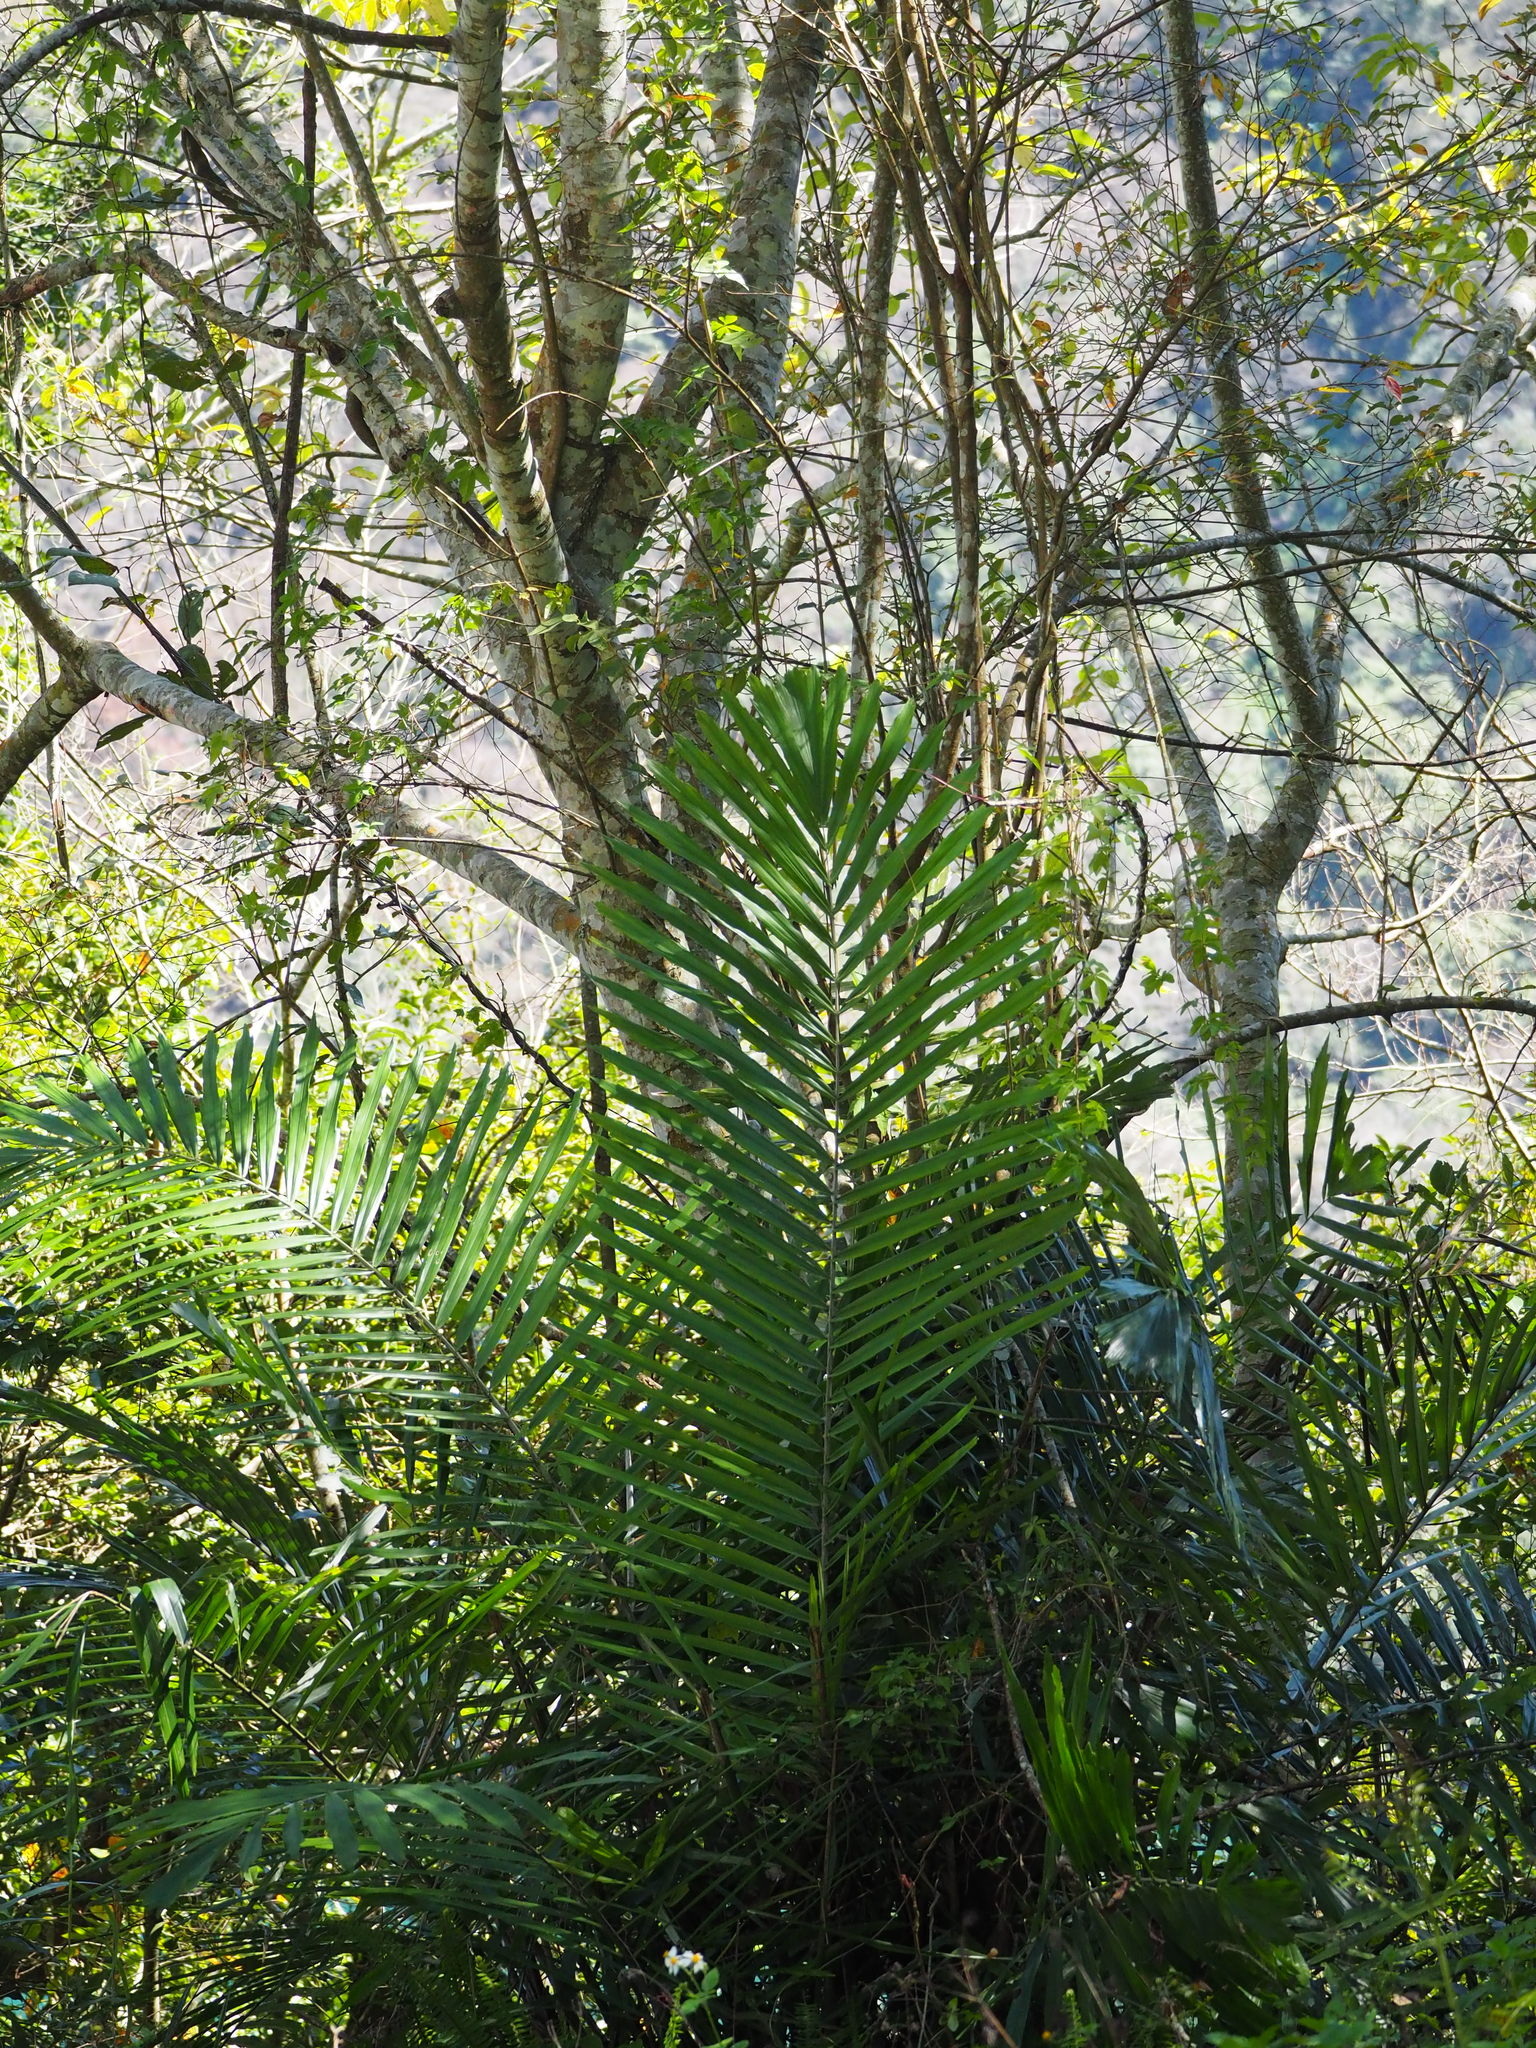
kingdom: Plantae
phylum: Tracheophyta
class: Liliopsida
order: Arecales
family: Arecaceae
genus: Arenga
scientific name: Arenga engleri
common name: Formosan sugar palm
